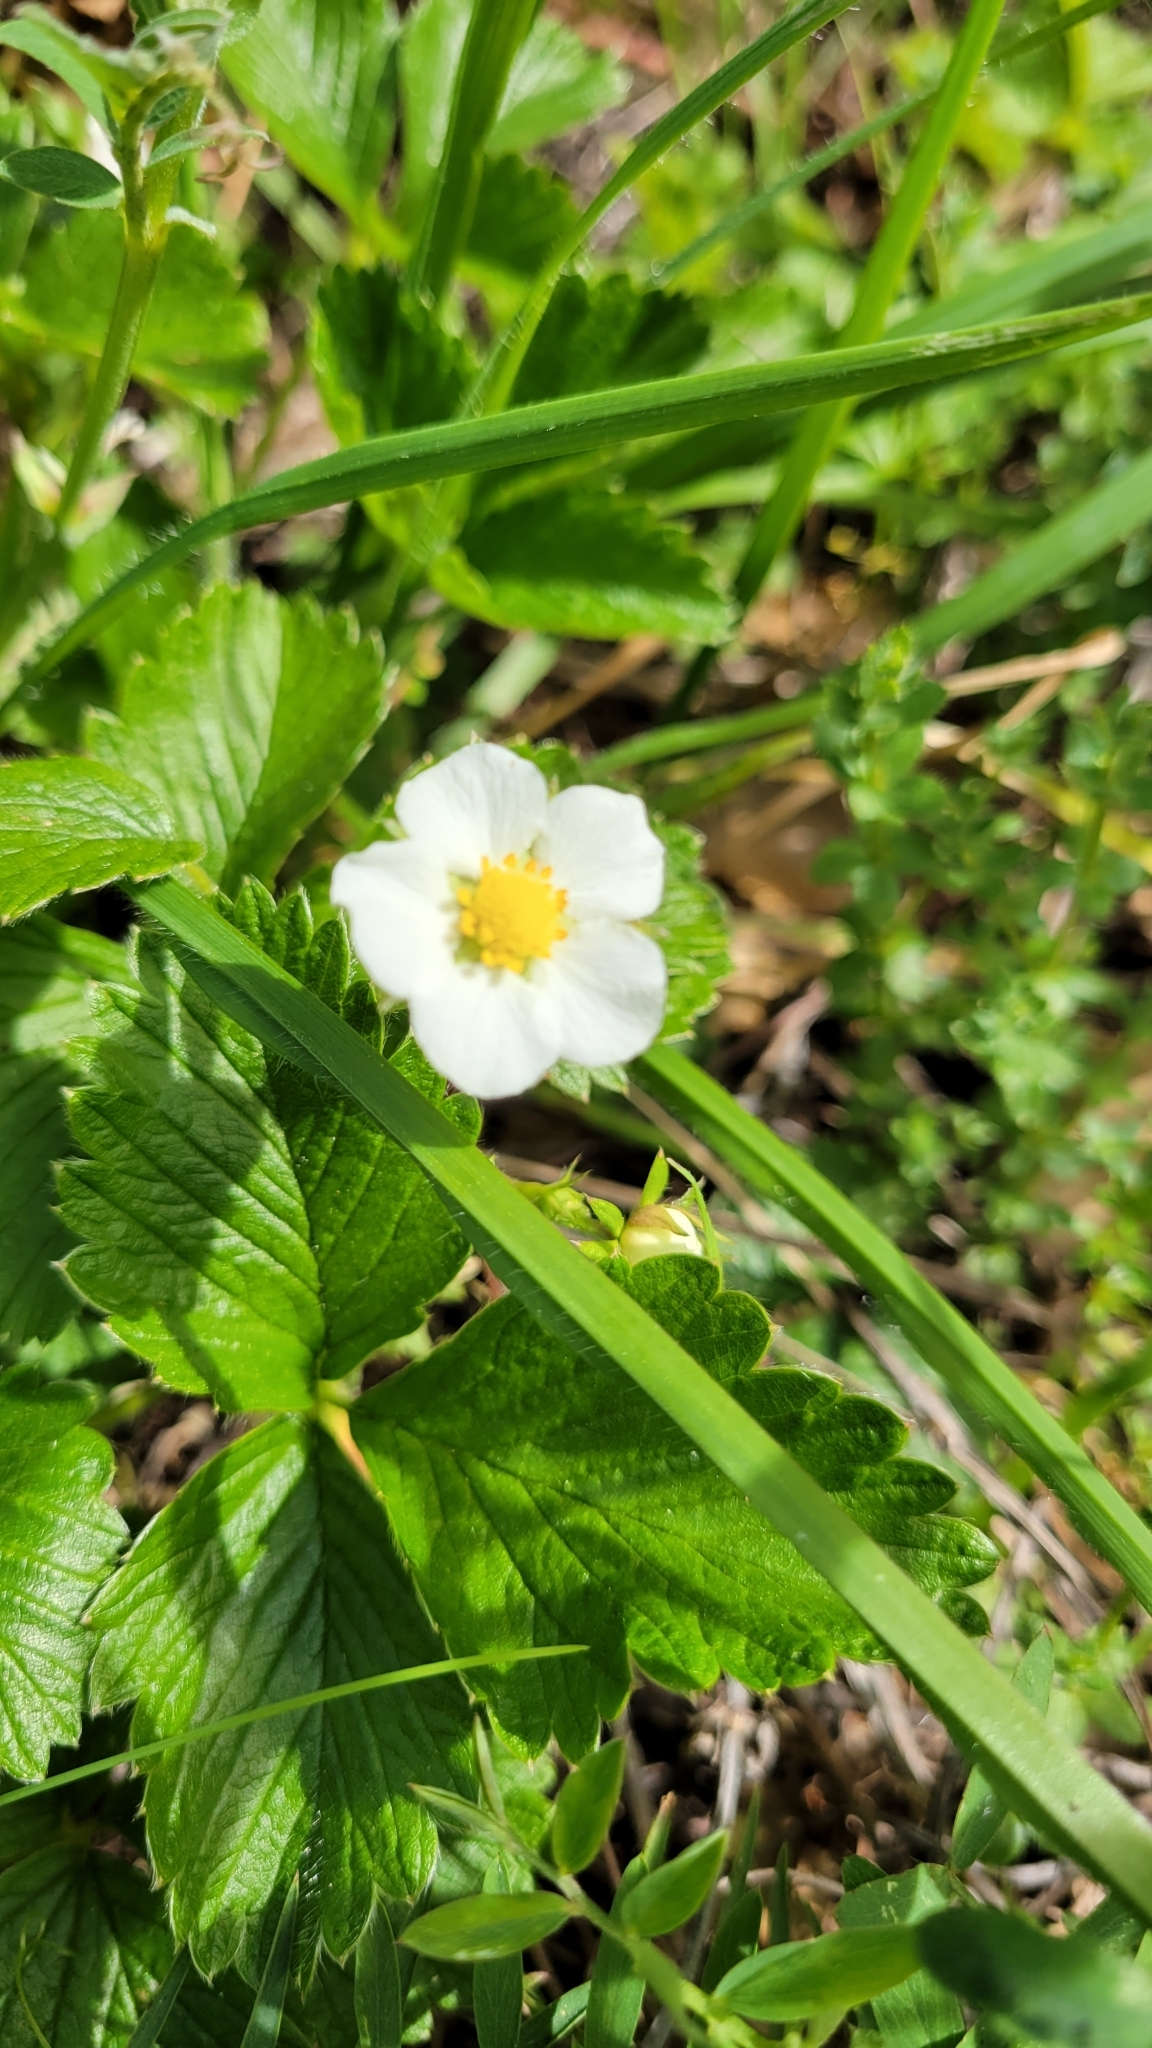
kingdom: Plantae
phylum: Tracheophyta
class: Magnoliopsida
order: Rosales
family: Rosaceae
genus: Fragaria
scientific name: Fragaria vesca
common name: Wild strawberry
